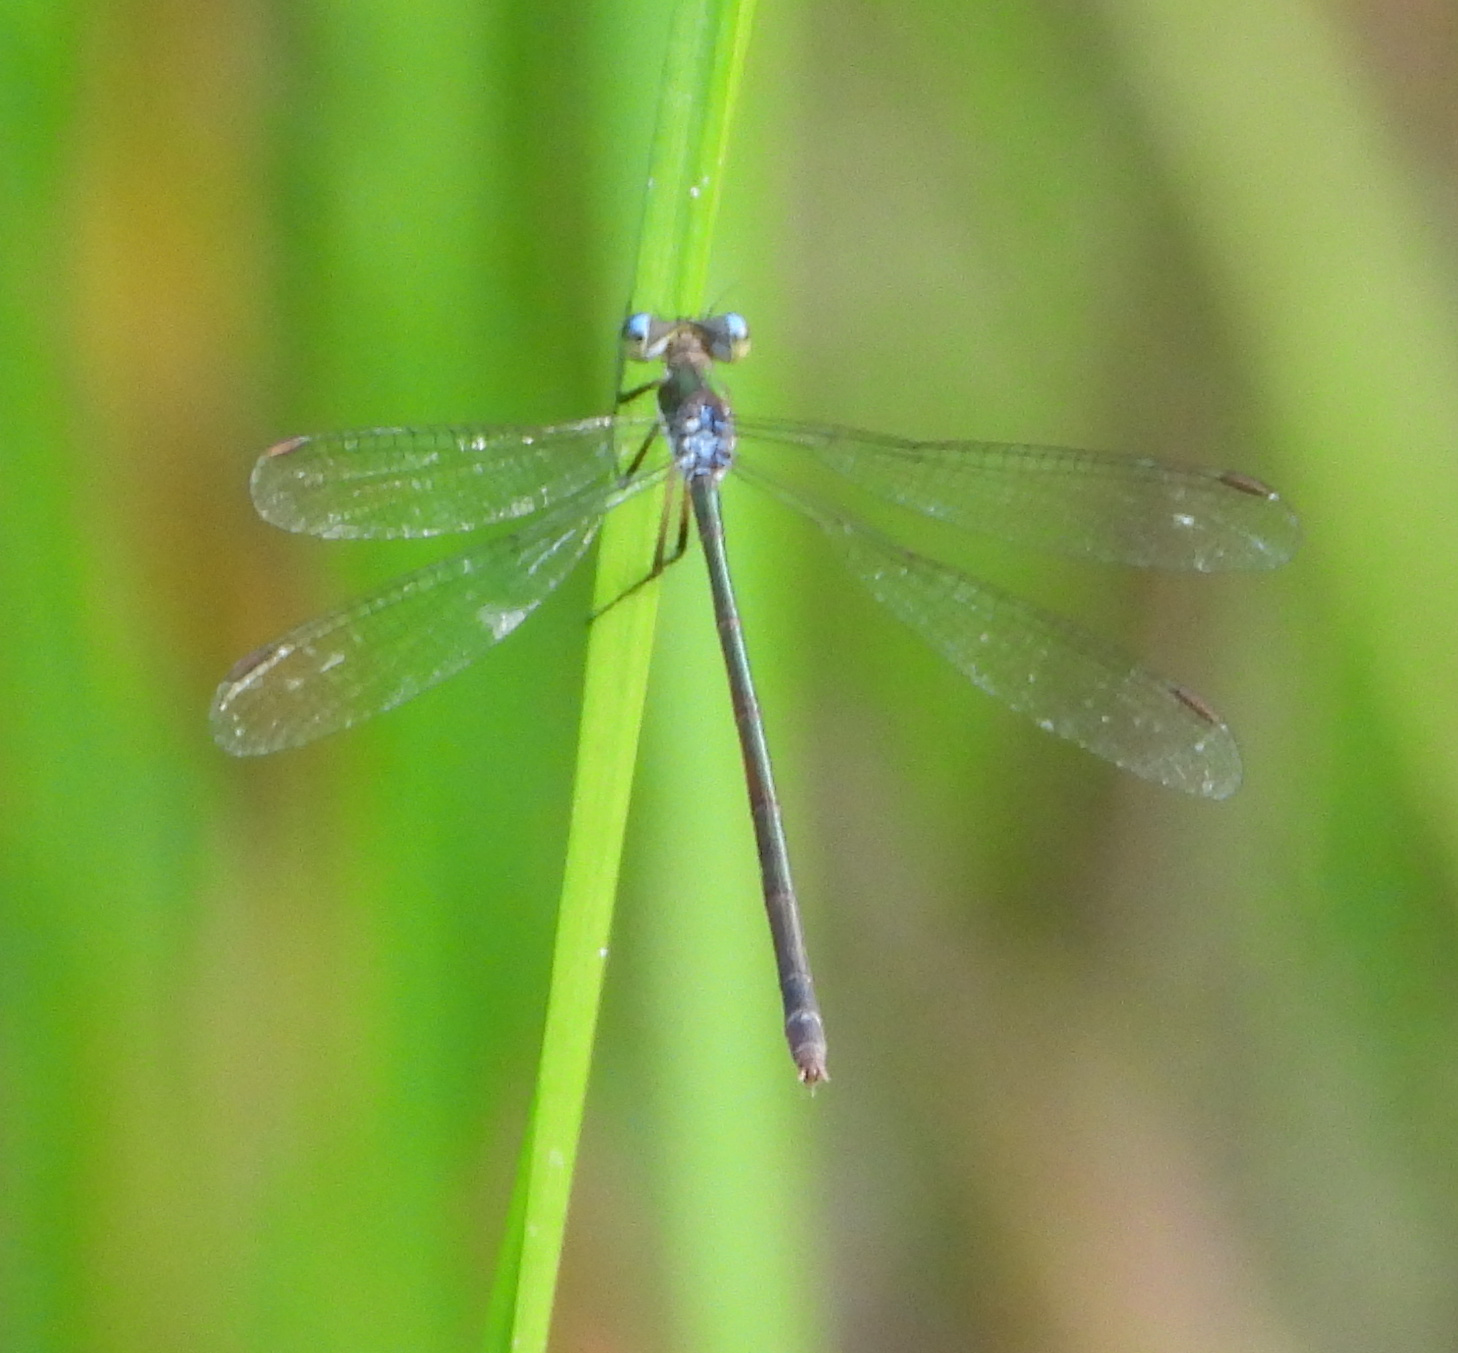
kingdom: Animalia
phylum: Arthropoda
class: Insecta
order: Odonata
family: Lestidae
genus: Lestes
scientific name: Lestes
